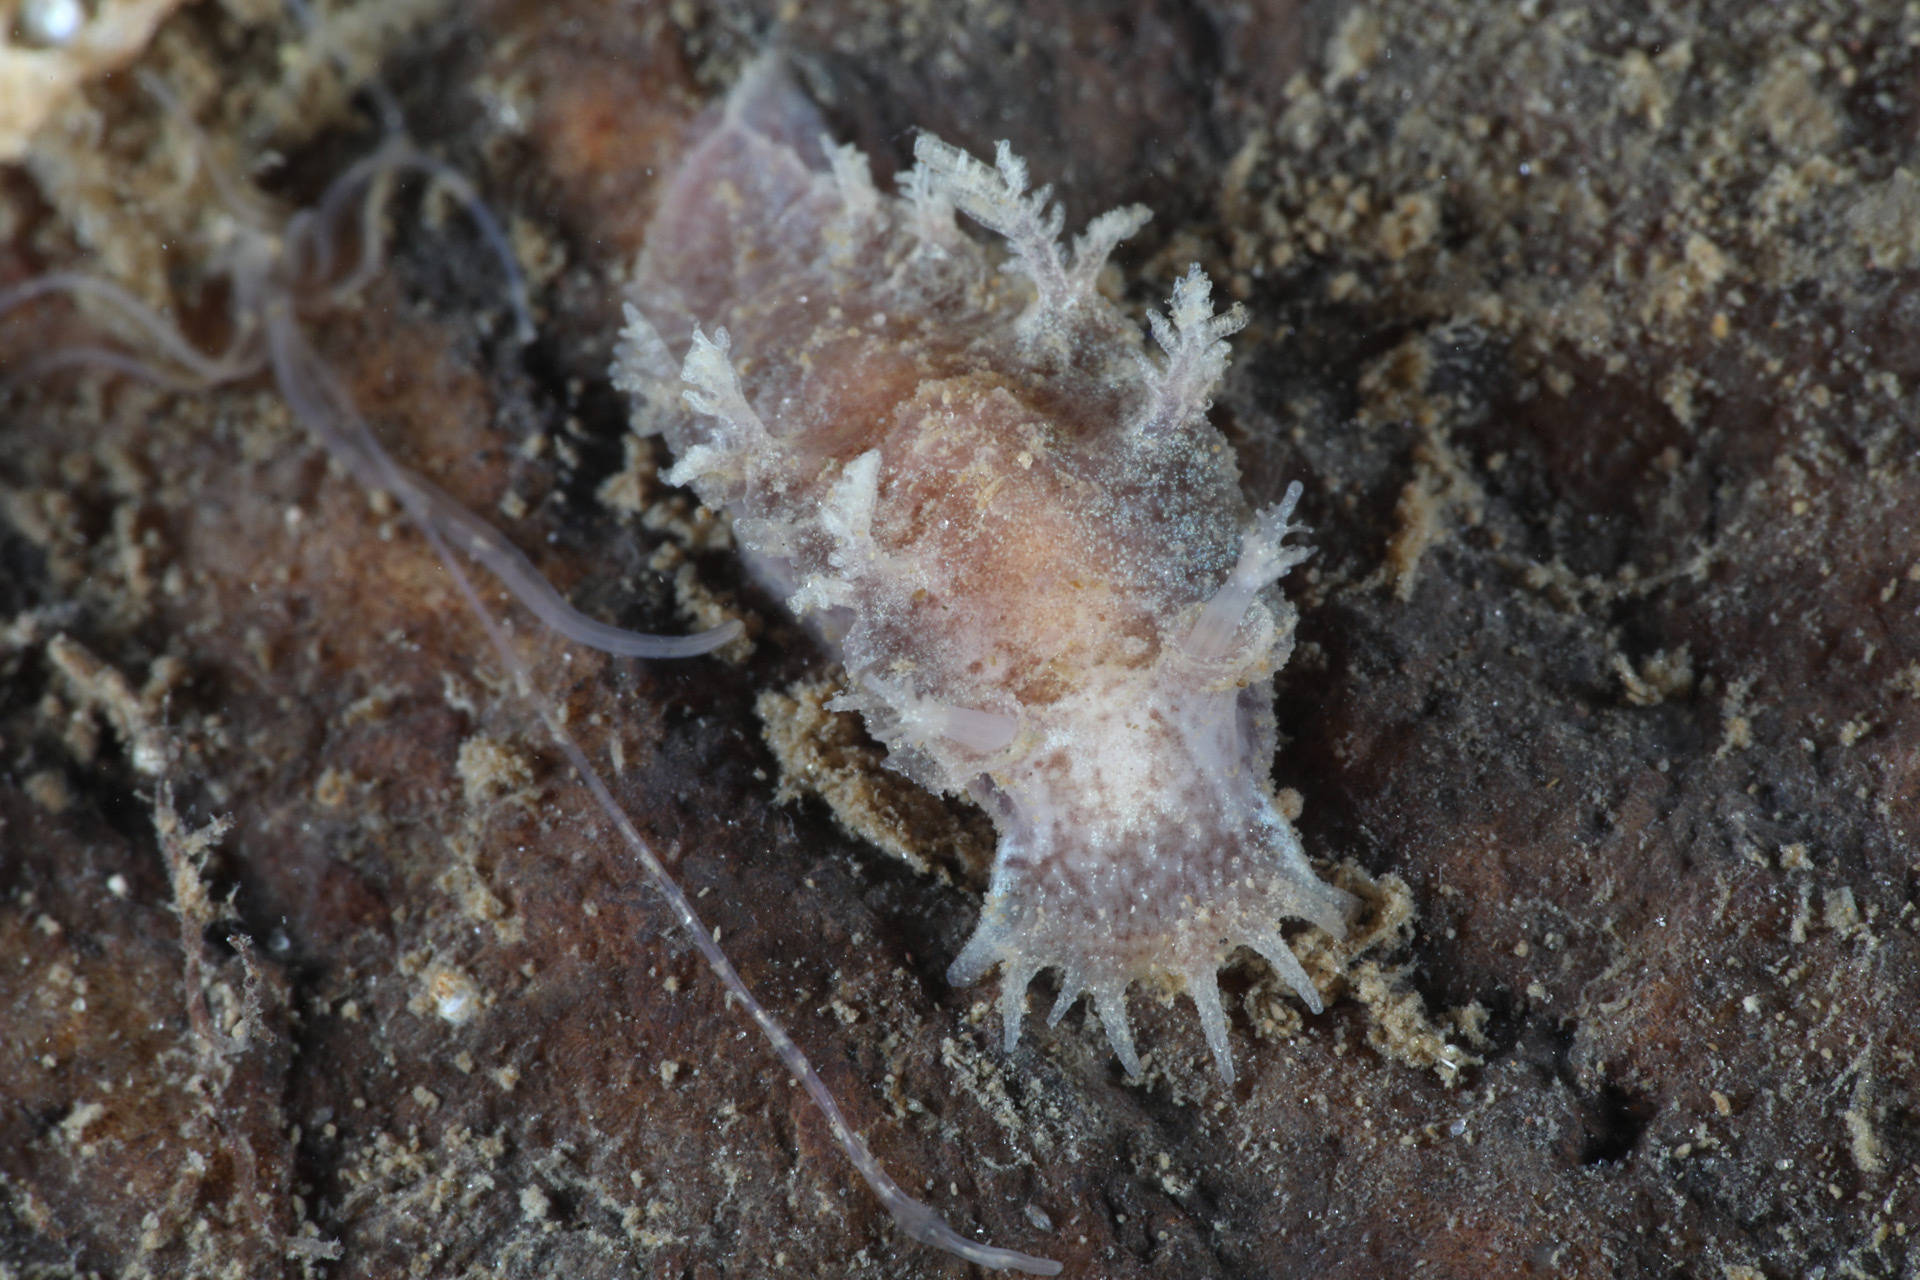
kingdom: Animalia
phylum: Mollusca
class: Gastropoda
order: Nudibranchia
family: Tritoniidae
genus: Duvaucelia
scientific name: Duvaucelia plebeia
